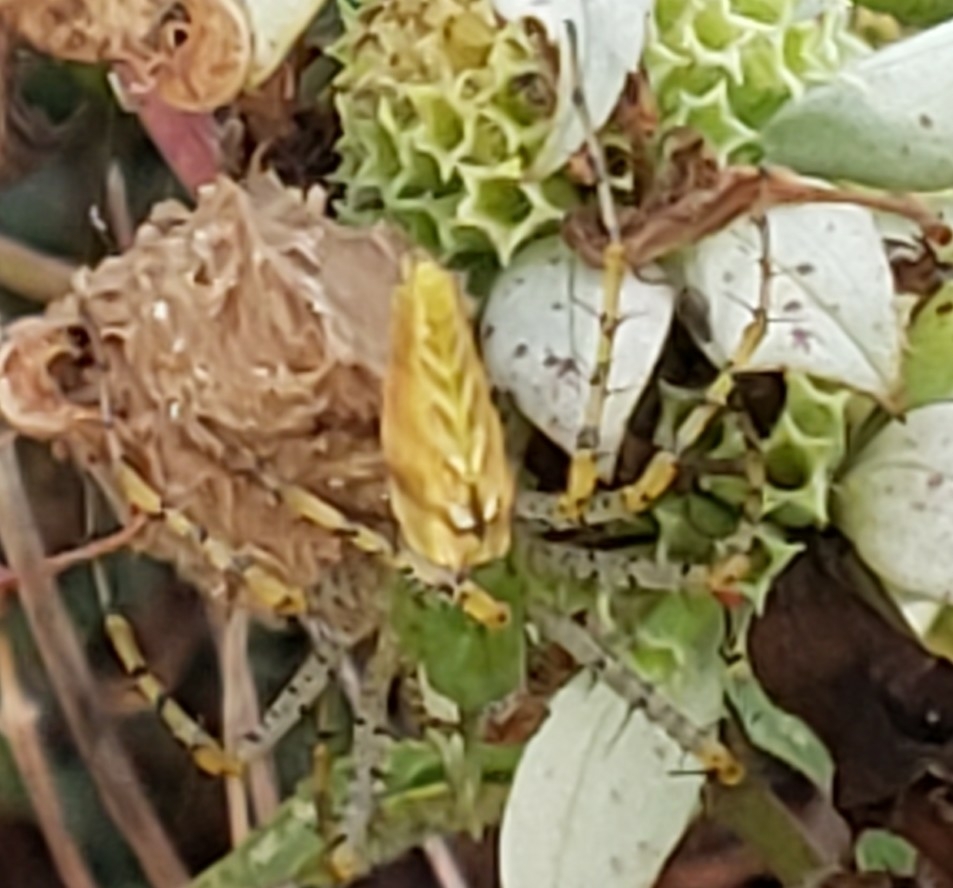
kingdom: Animalia
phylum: Arthropoda
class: Arachnida
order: Araneae
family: Oxyopidae
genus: Peucetia
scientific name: Peucetia viridans
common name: Lynx spiders
